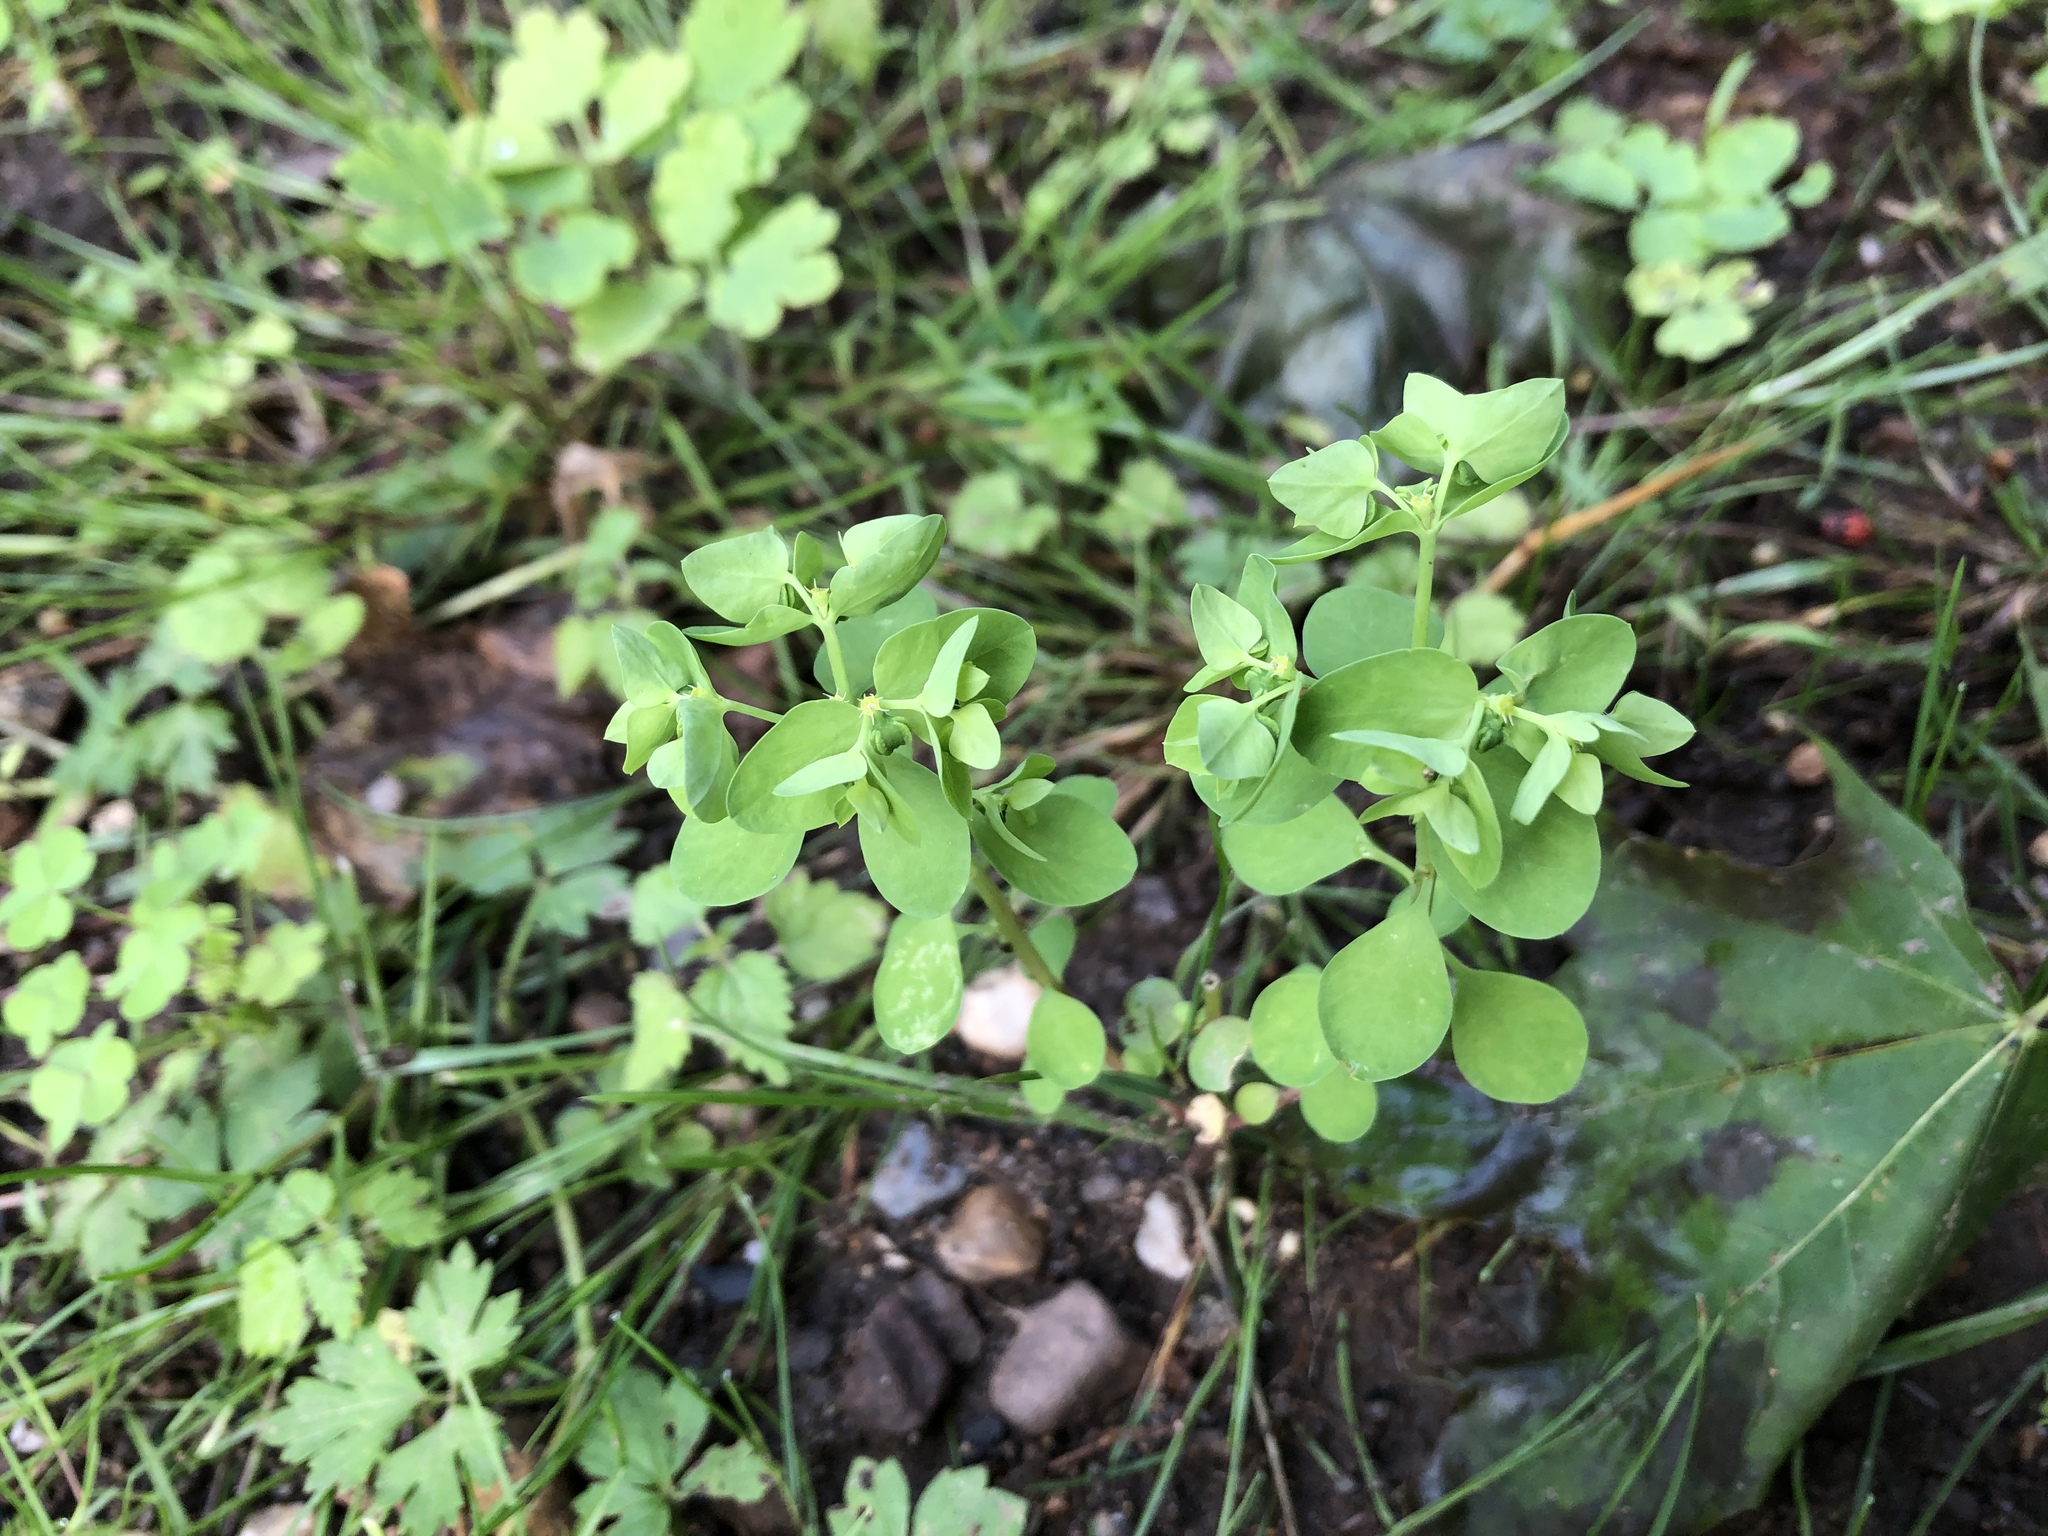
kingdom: Plantae
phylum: Tracheophyta
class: Magnoliopsida
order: Malpighiales
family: Euphorbiaceae
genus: Euphorbia
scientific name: Euphorbia peplus
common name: Petty spurge
